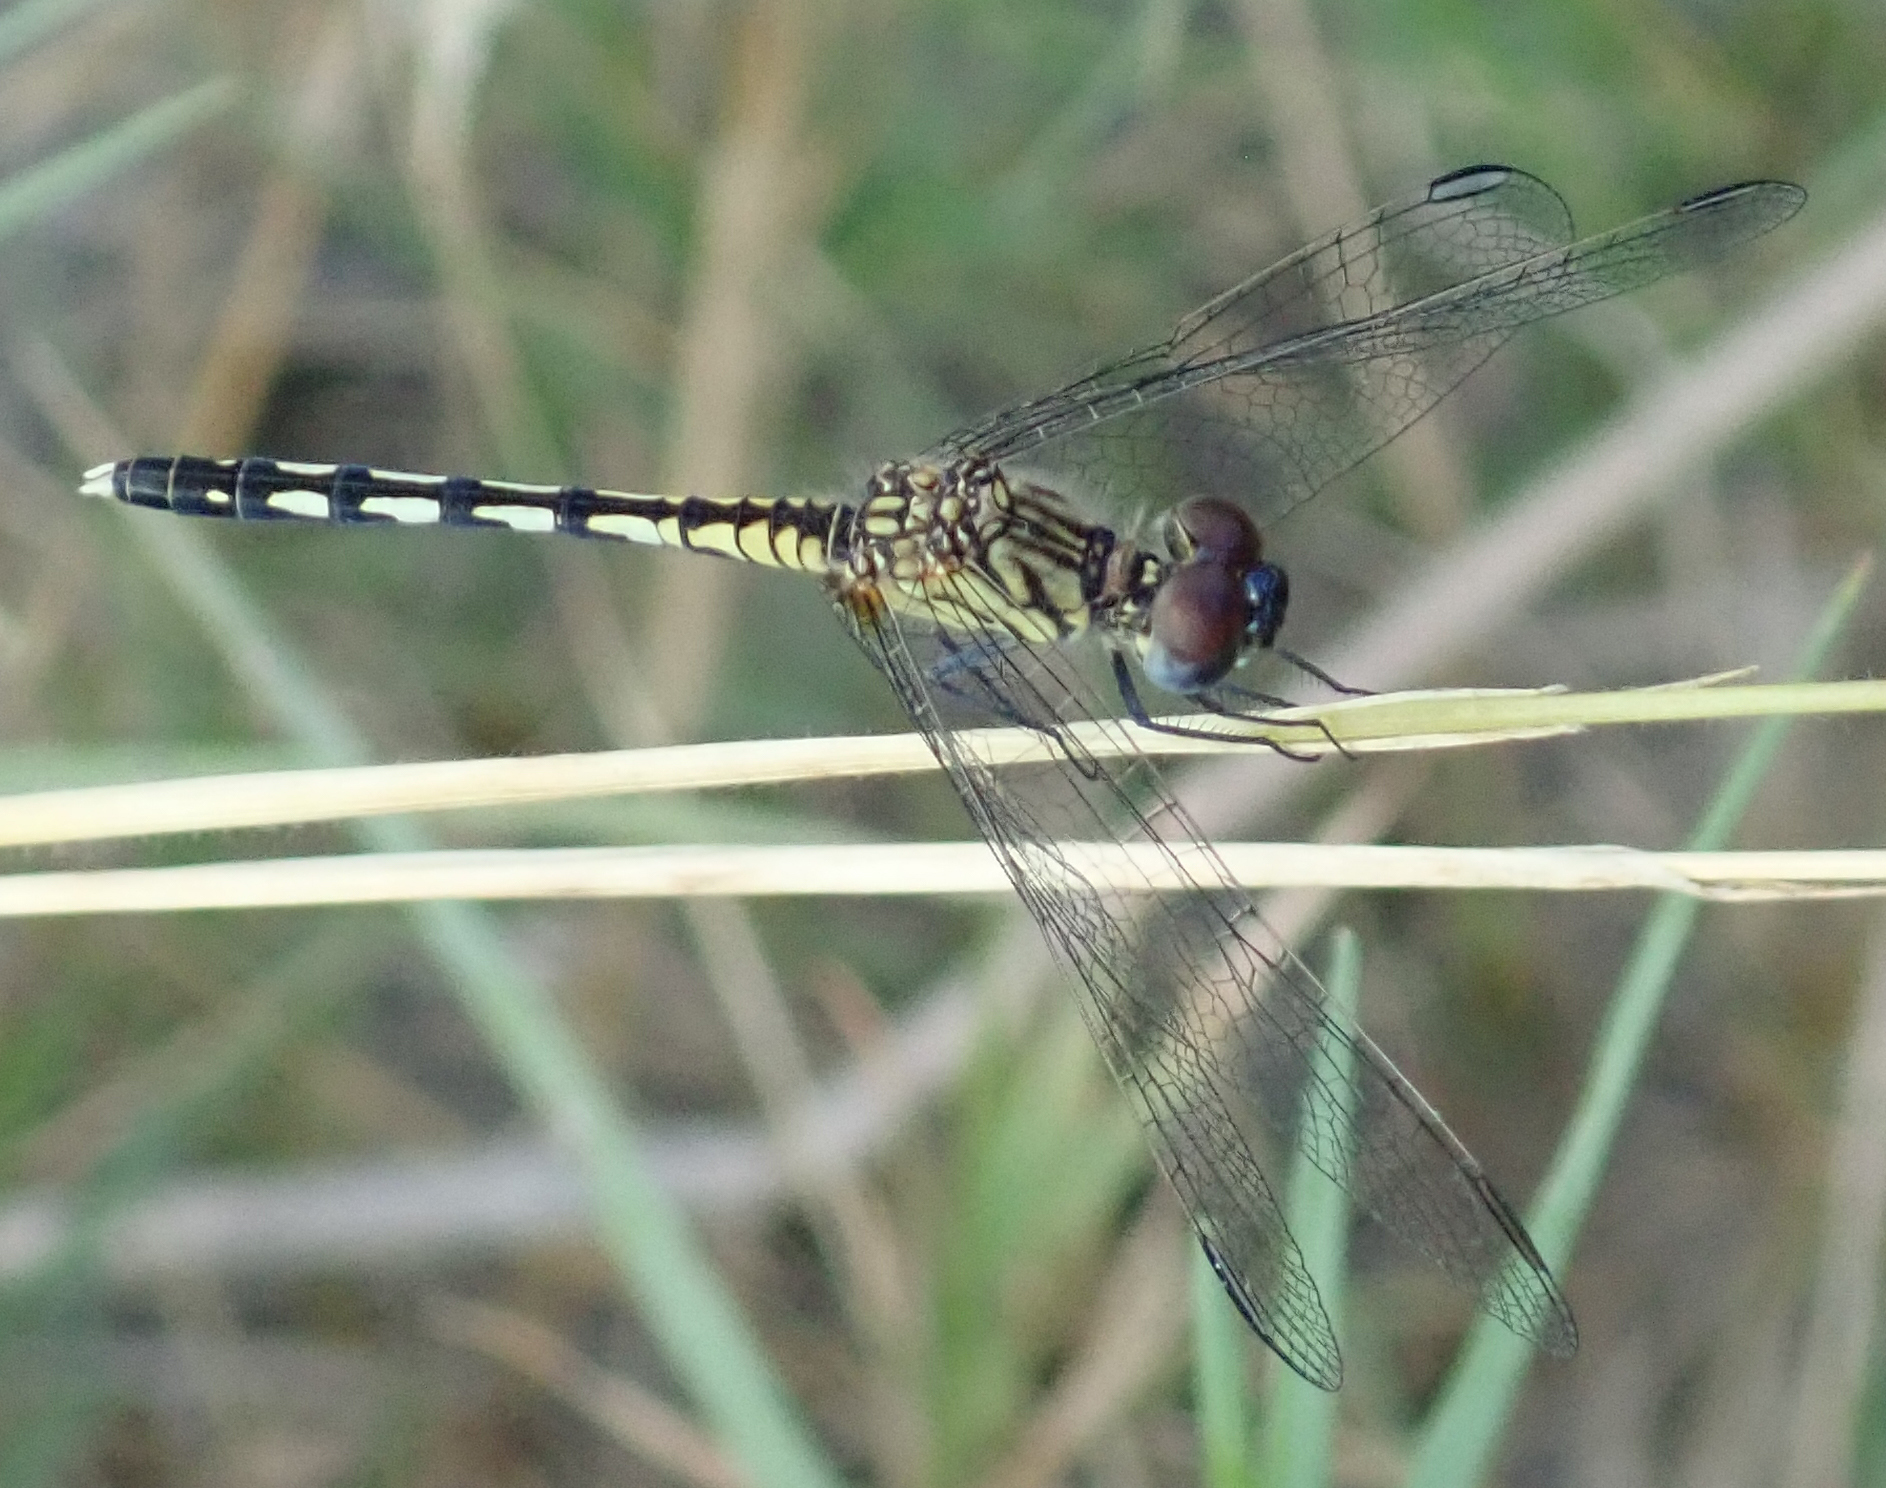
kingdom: Animalia
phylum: Arthropoda
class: Insecta
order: Odonata
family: Libellulidae
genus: Diplacodes
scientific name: Diplacodes lefebvrii
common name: Black percher
